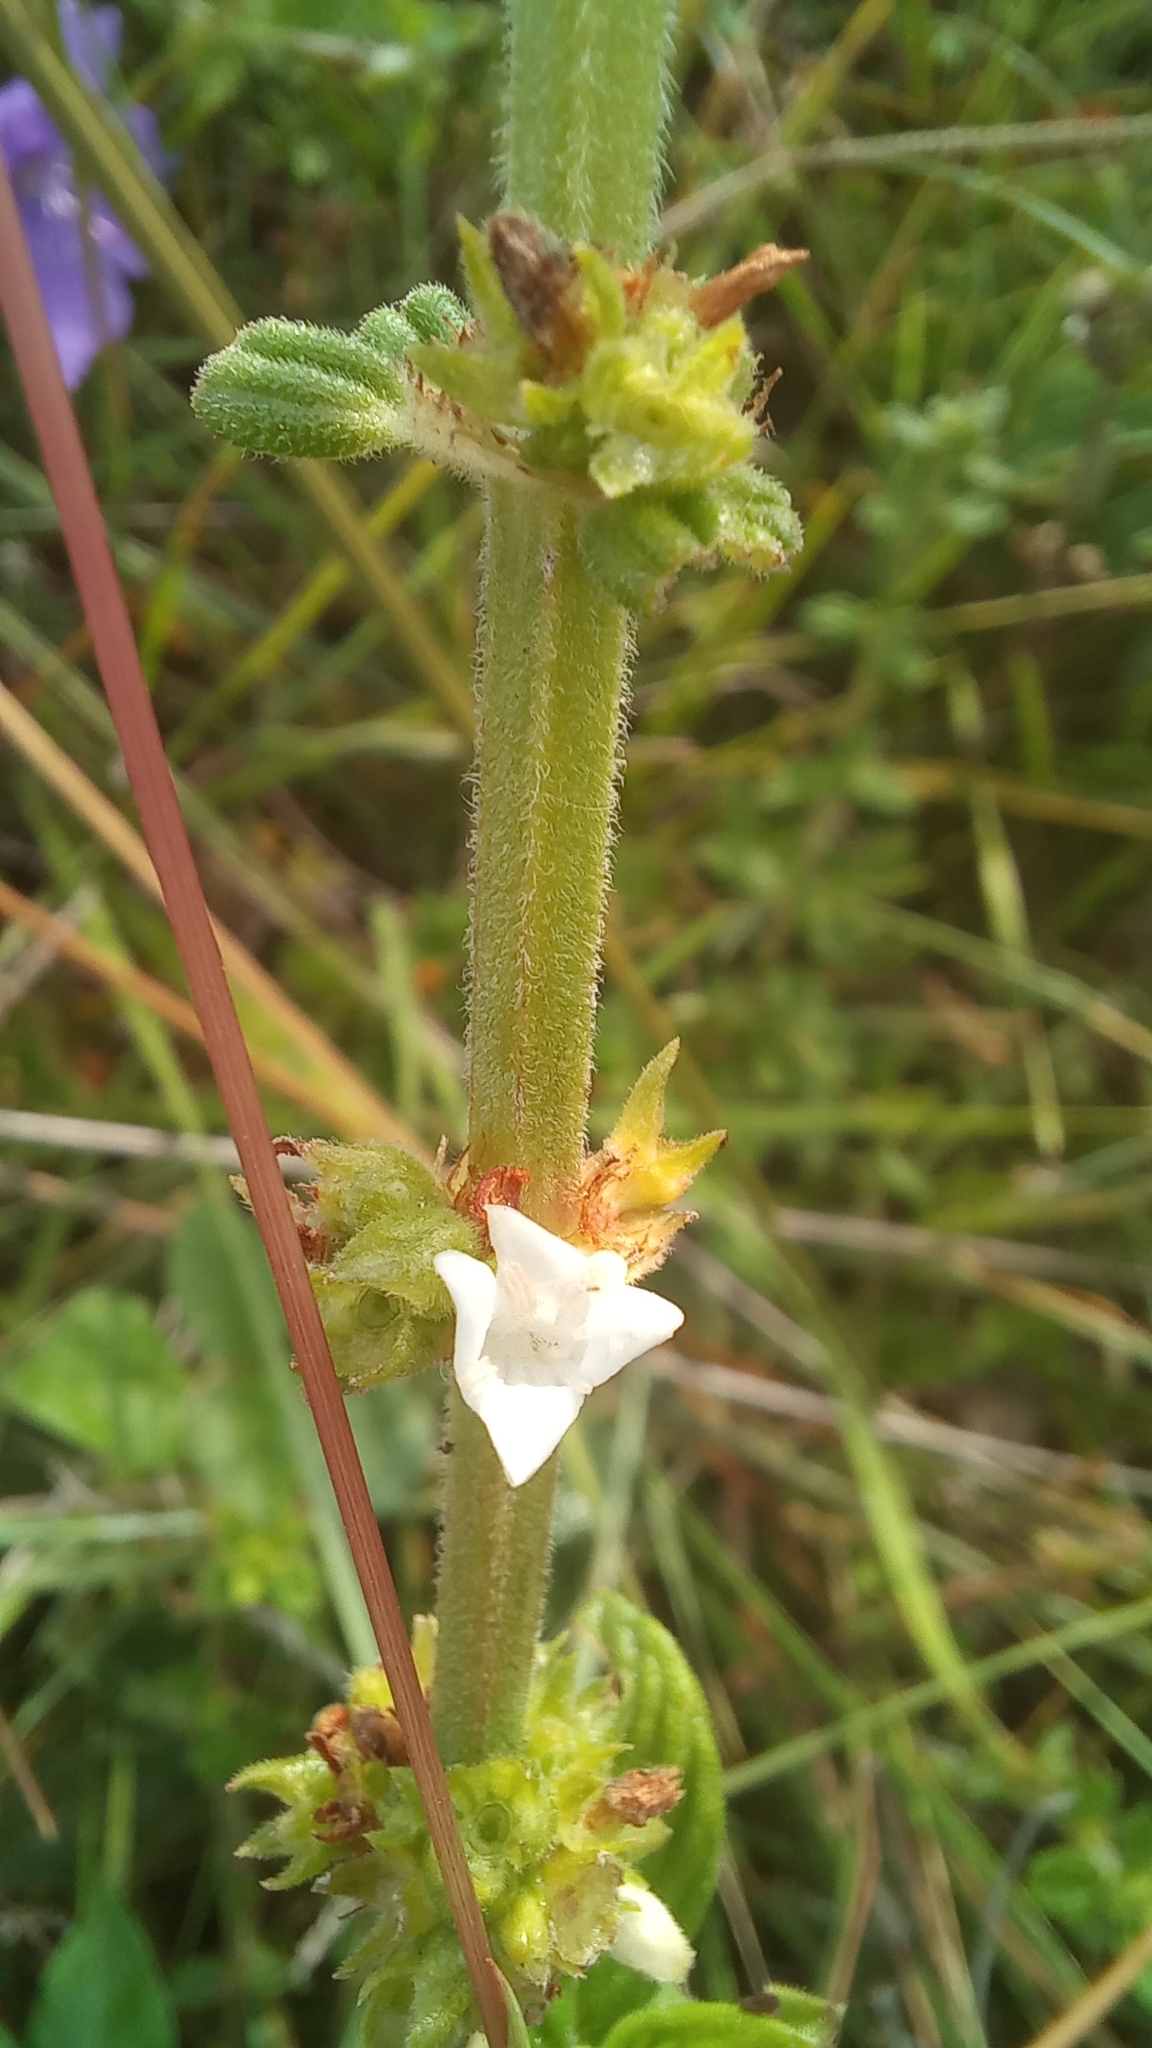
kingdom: Plantae
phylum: Tracheophyta
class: Magnoliopsida
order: Gentianales
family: Rubiaceae
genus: Hexasepalum
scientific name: Hexasepalum radulum
